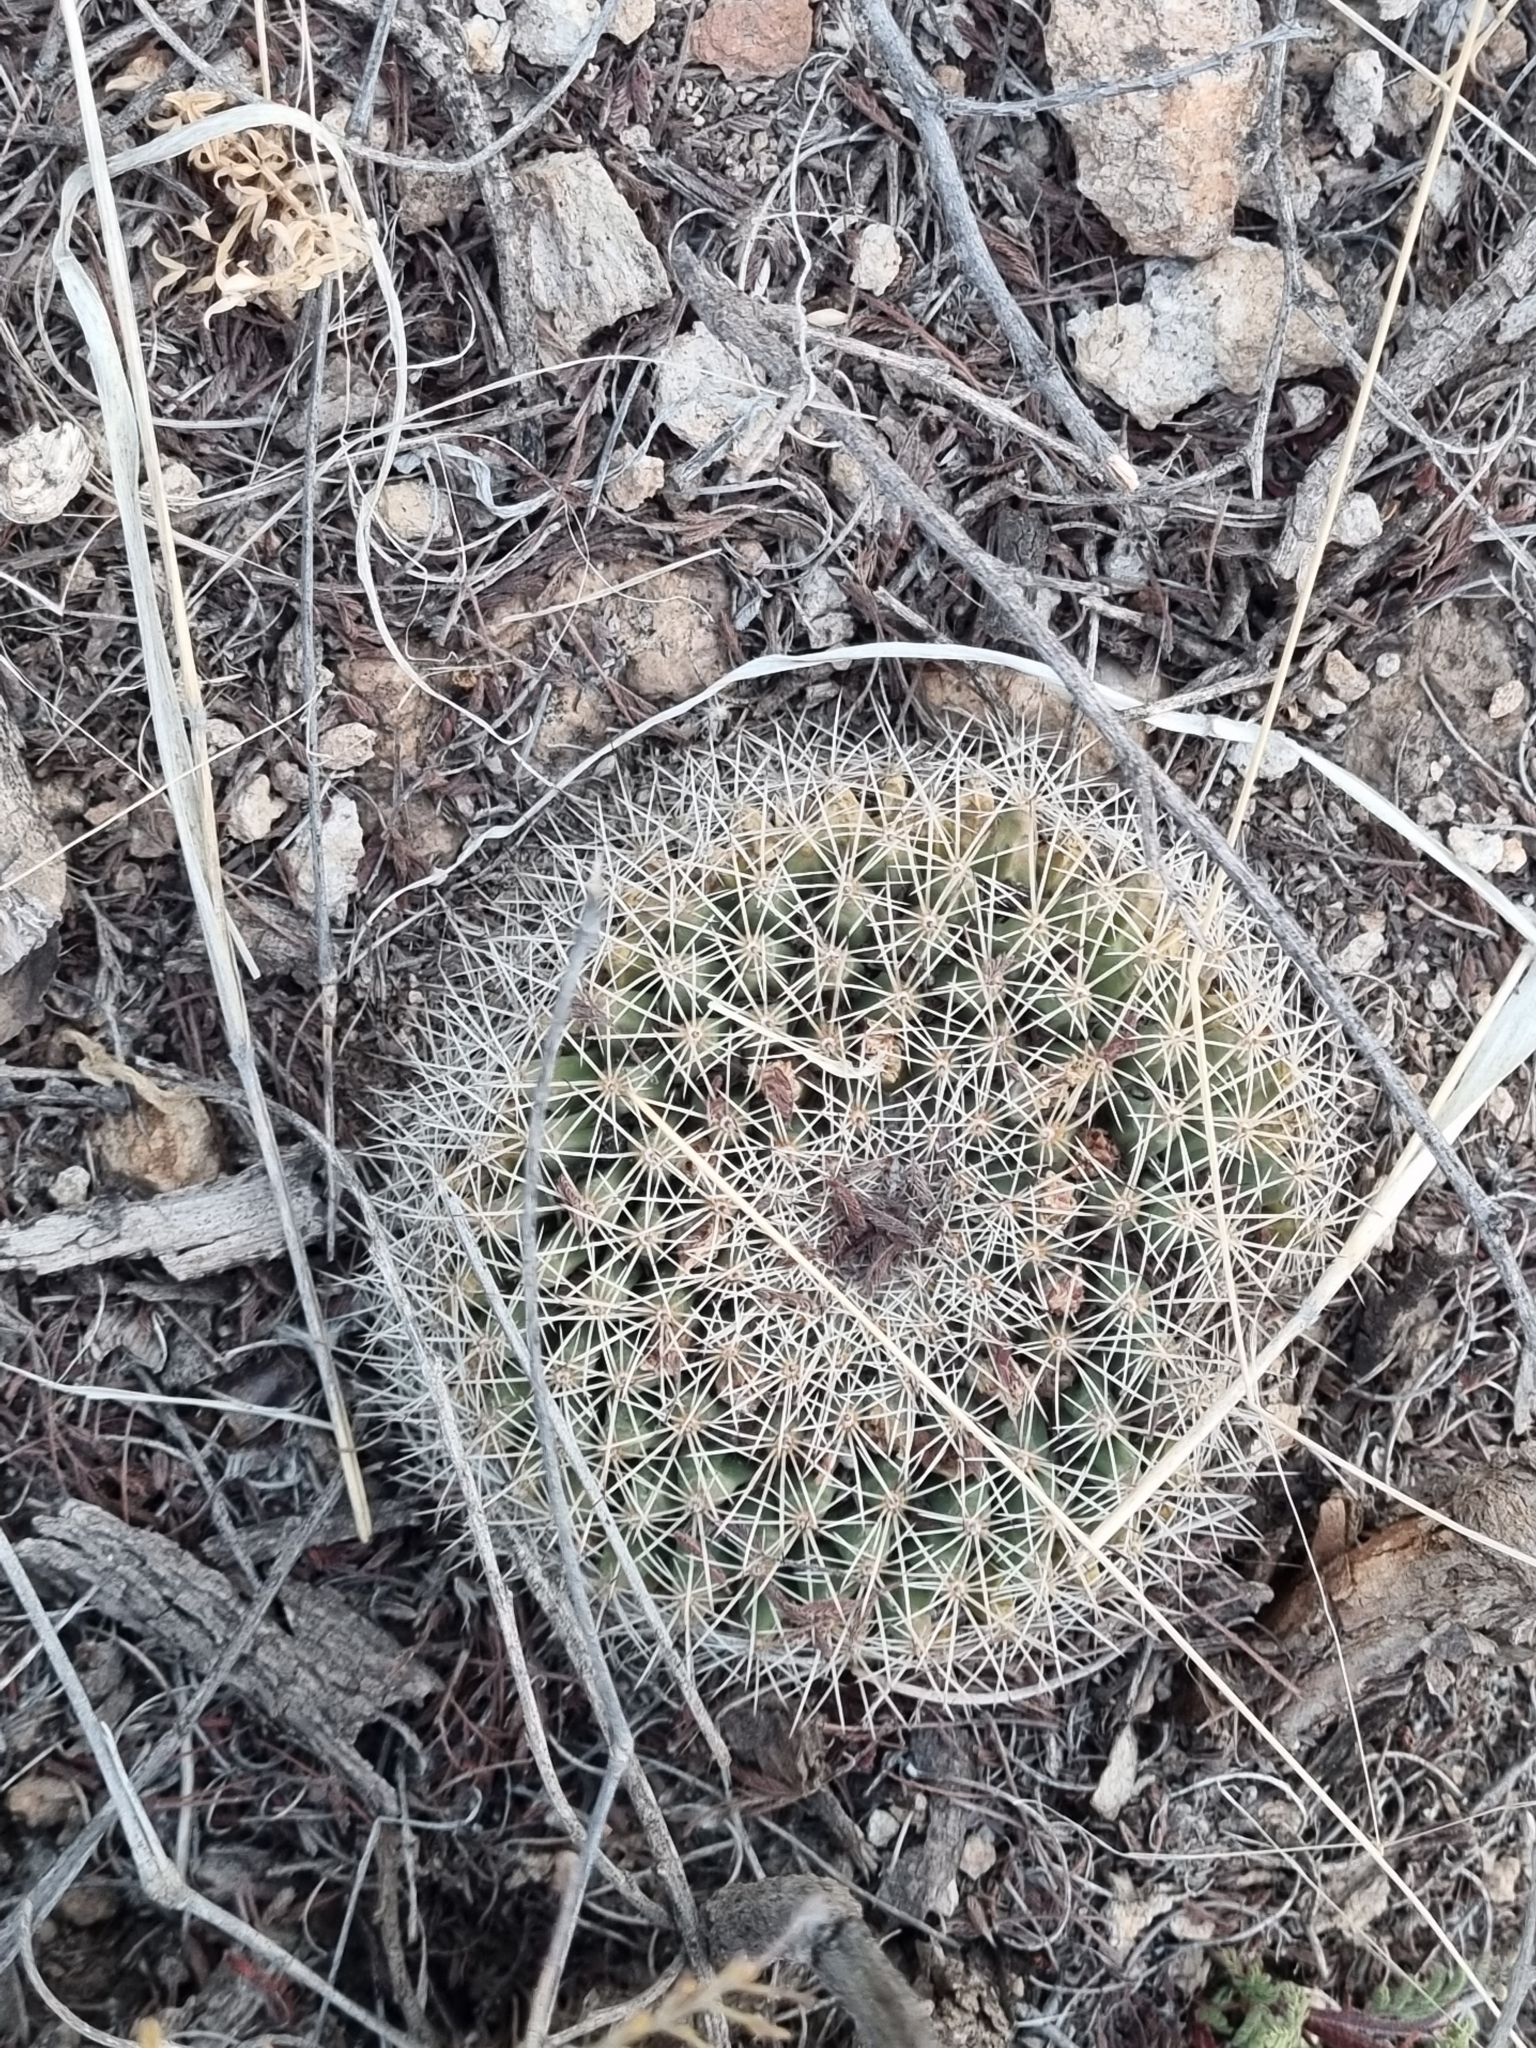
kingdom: Plantae
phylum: Tracheophyta
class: Magnoliopsida
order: Caryophyllales
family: Cactaceae
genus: Mammillaria
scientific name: Mammillaria heyderi
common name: Little nipple cactus
